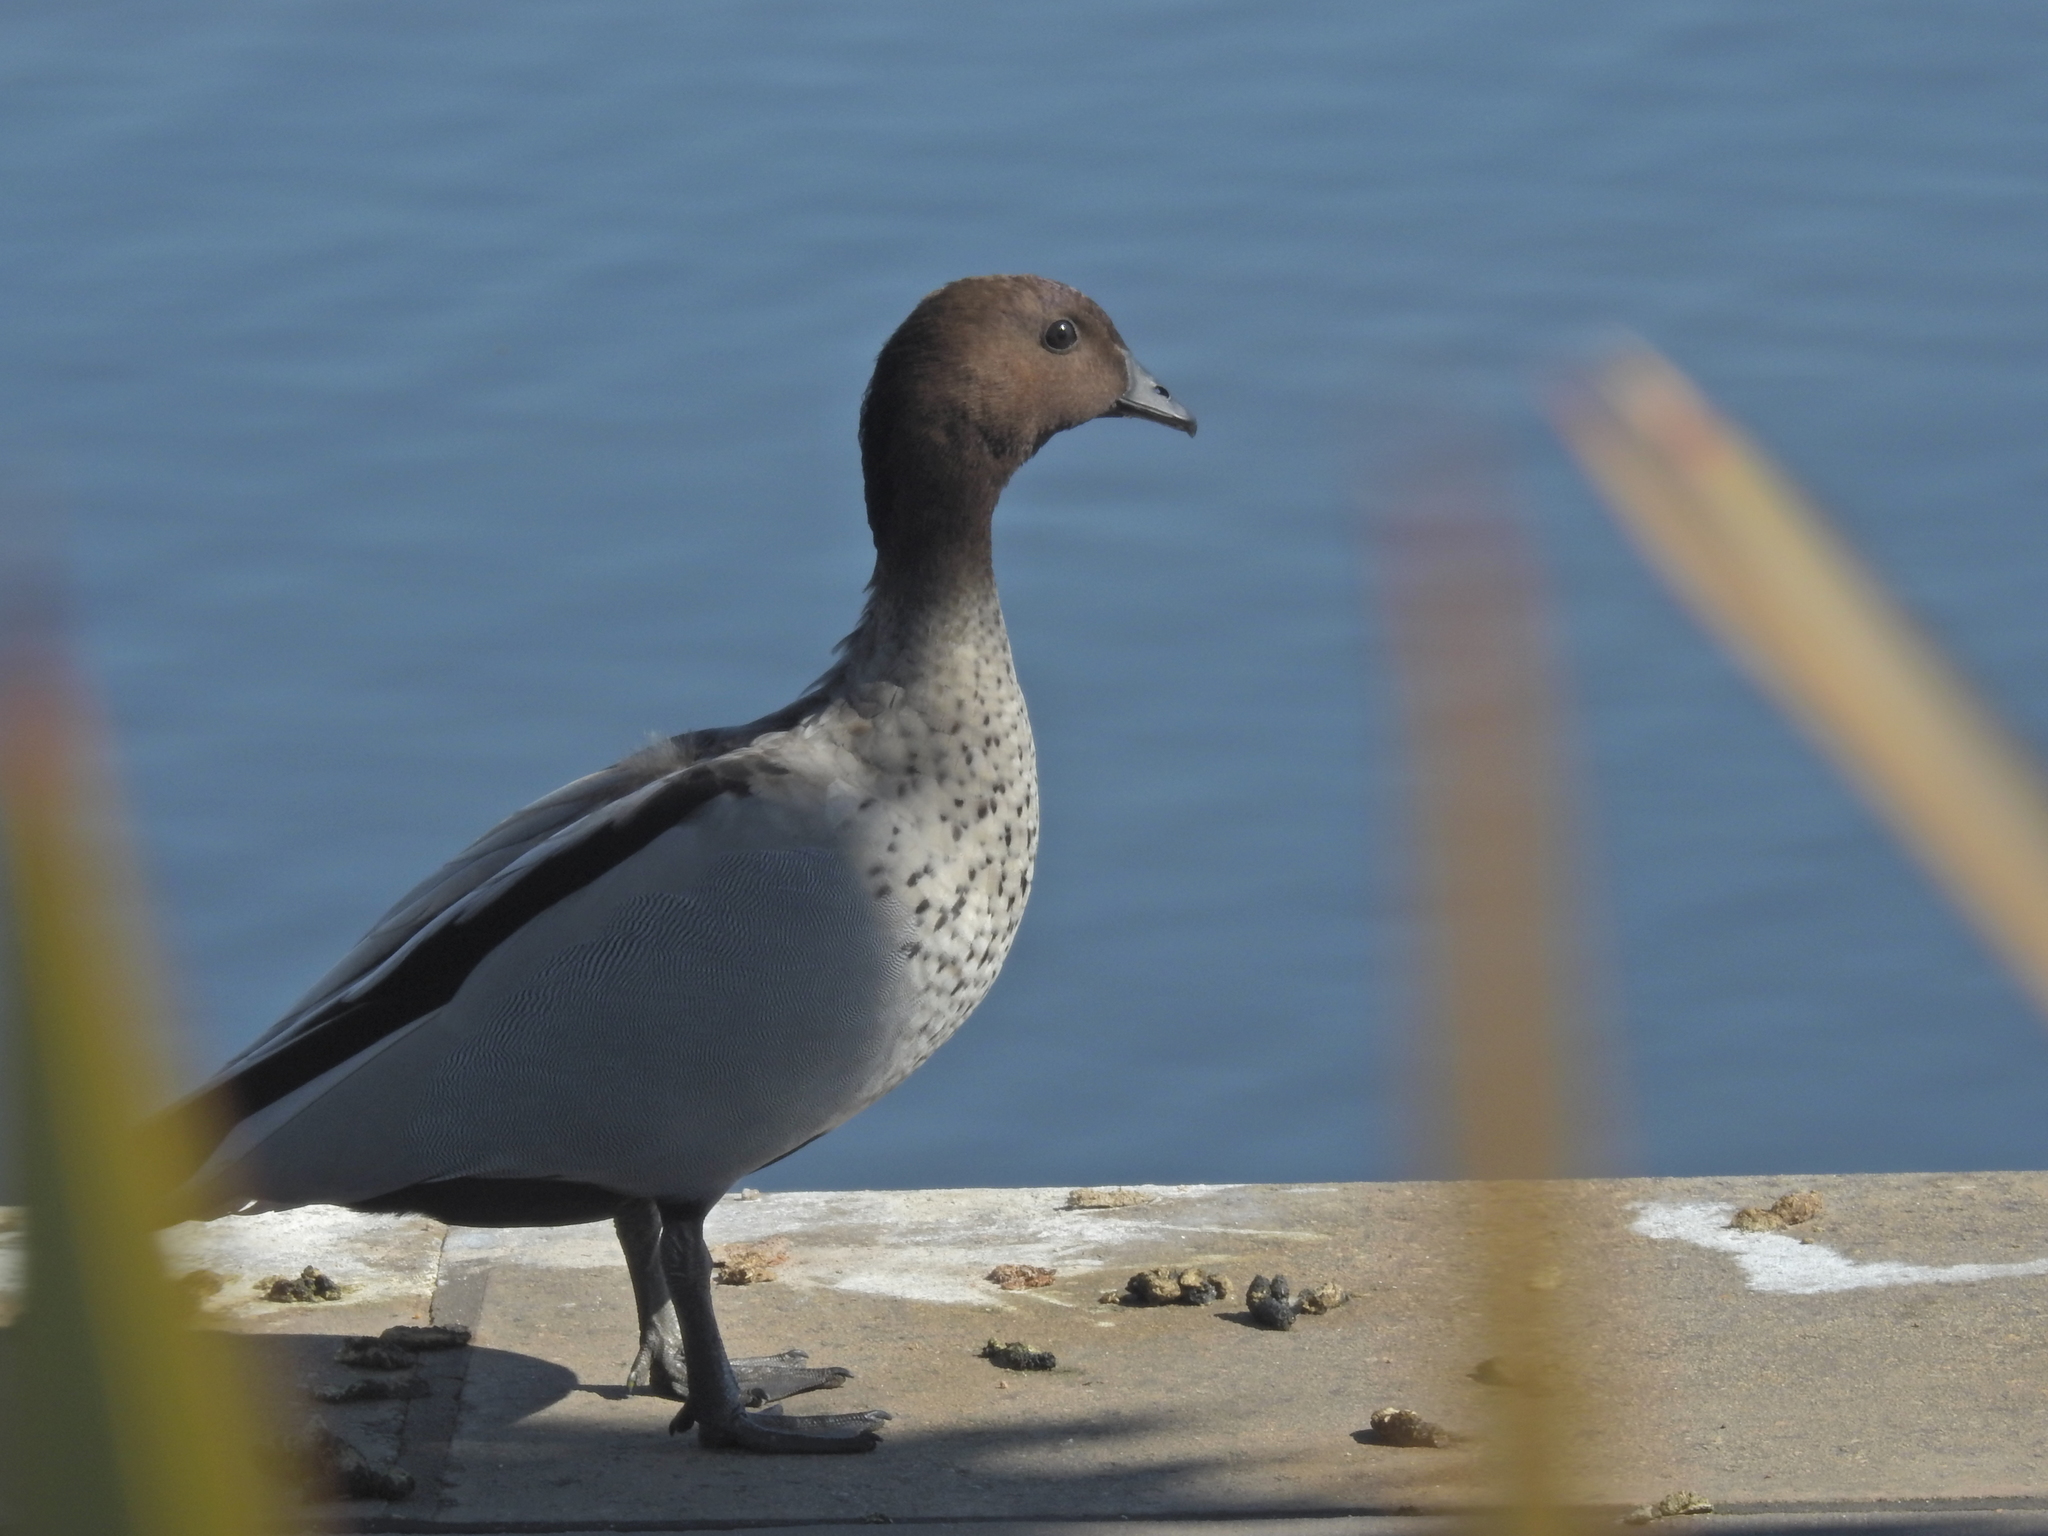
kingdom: Animalia
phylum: Chordata
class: Aves
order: Anseriformes
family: Anatidae
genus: Chenonetta
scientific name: Chenonetta jubata
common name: Maned duck
